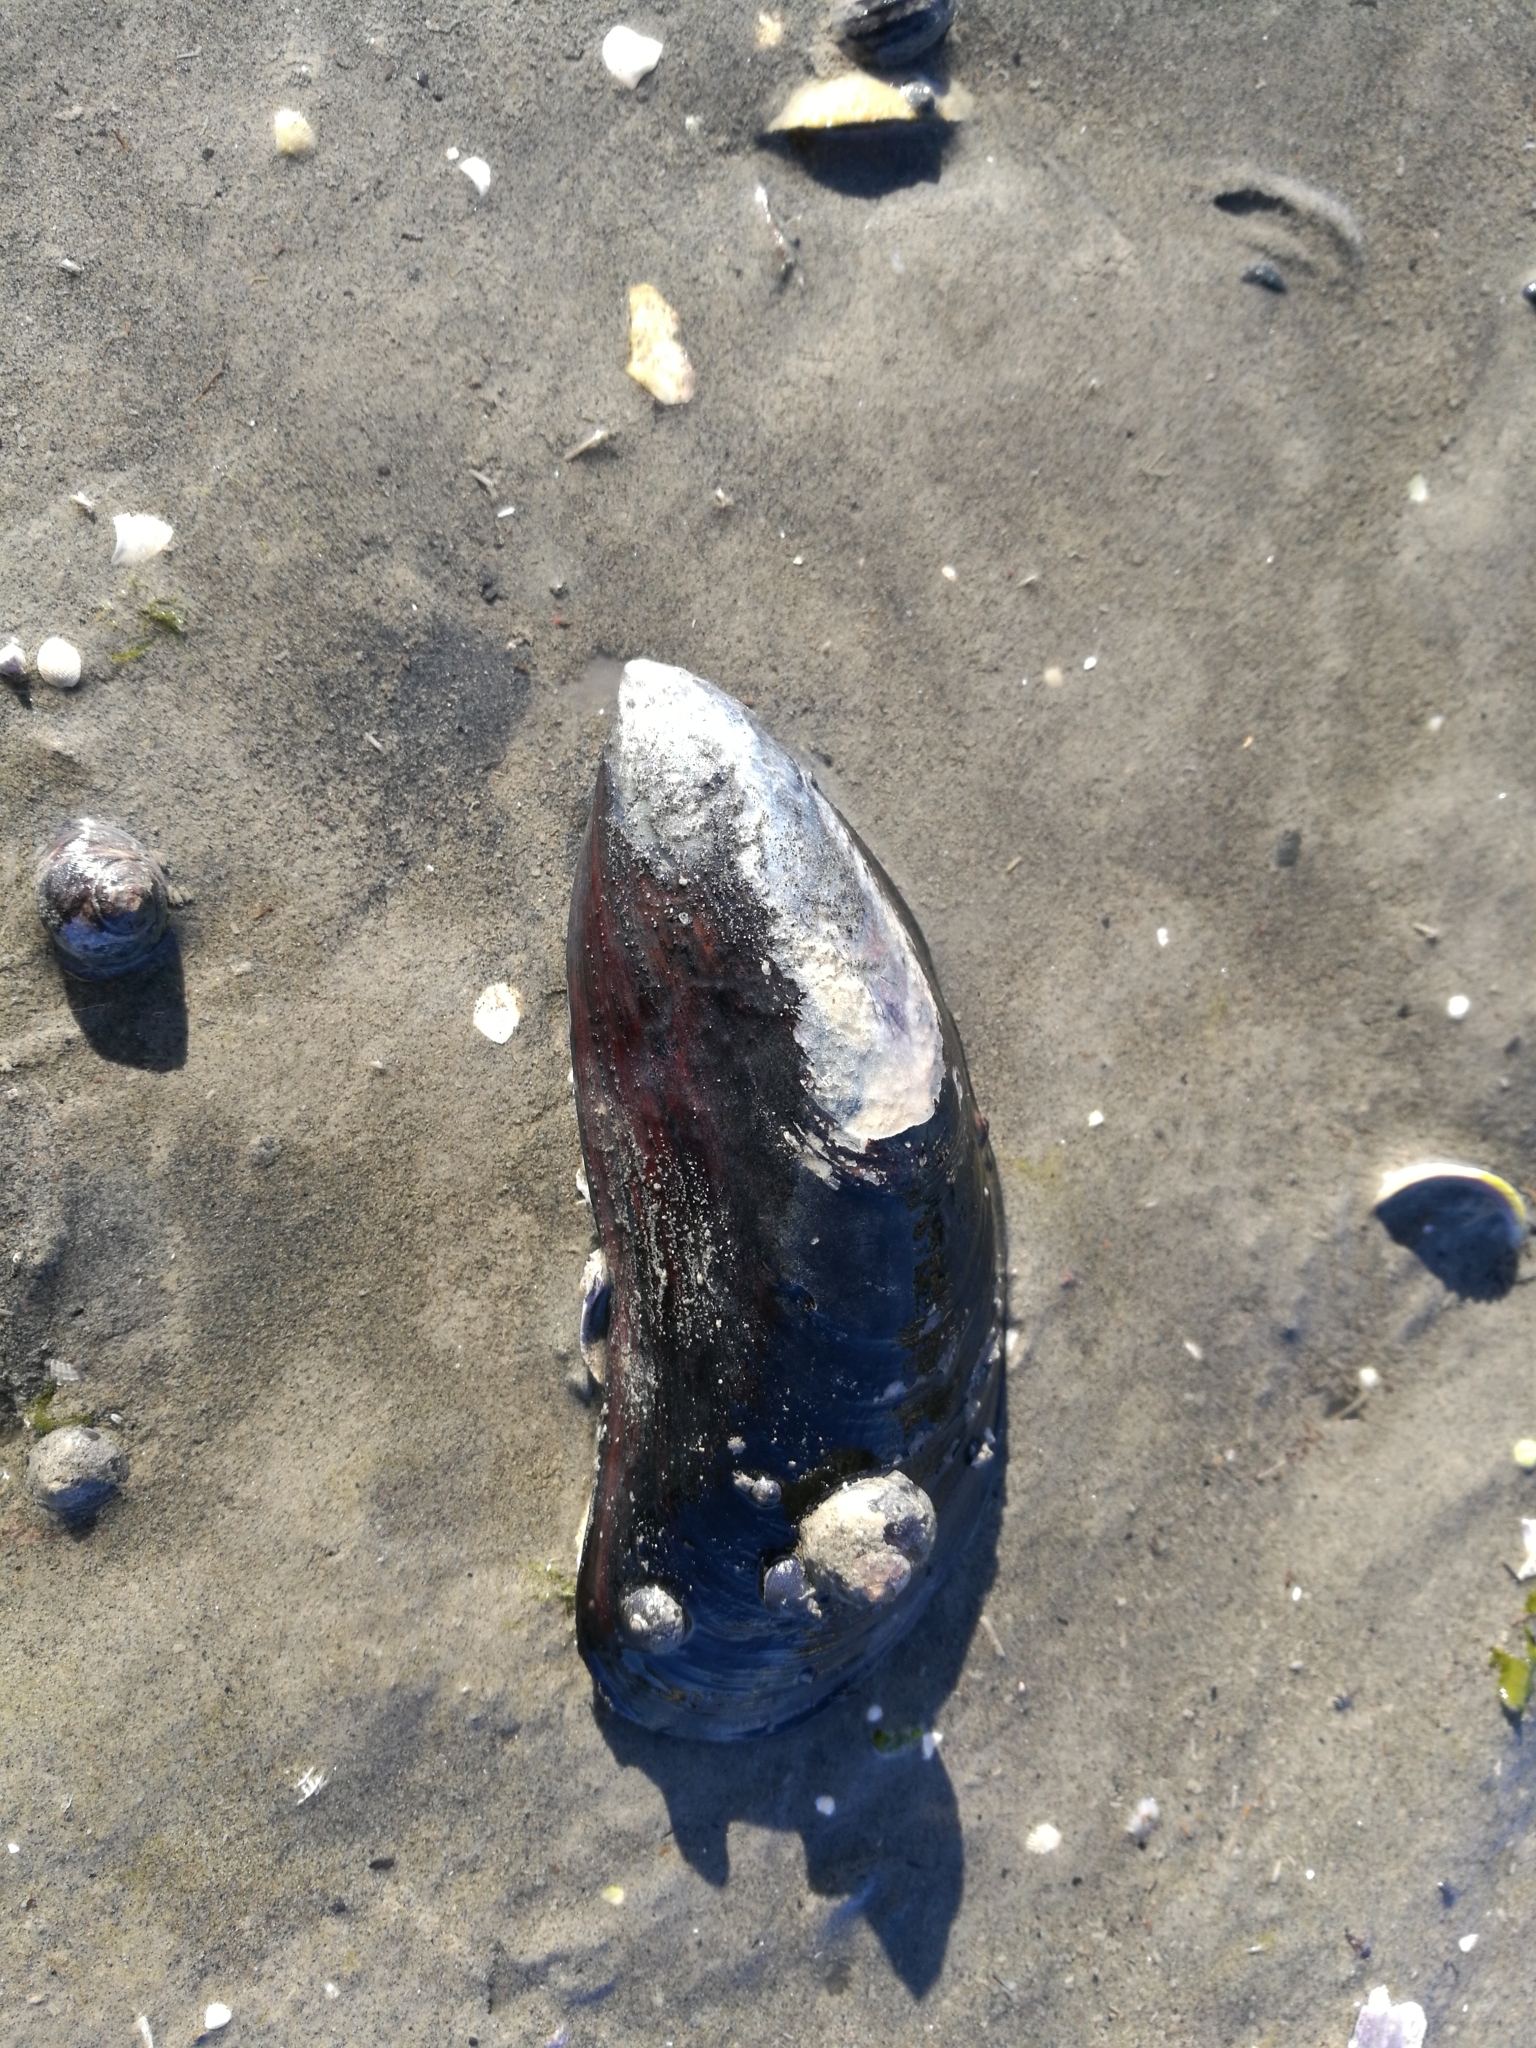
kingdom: Animalia
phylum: Mollusca
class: Bivalvia
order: Mytilida
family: Mytilidae
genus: Perna
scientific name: Perna canaliculus
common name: New zealand greenshelltm
